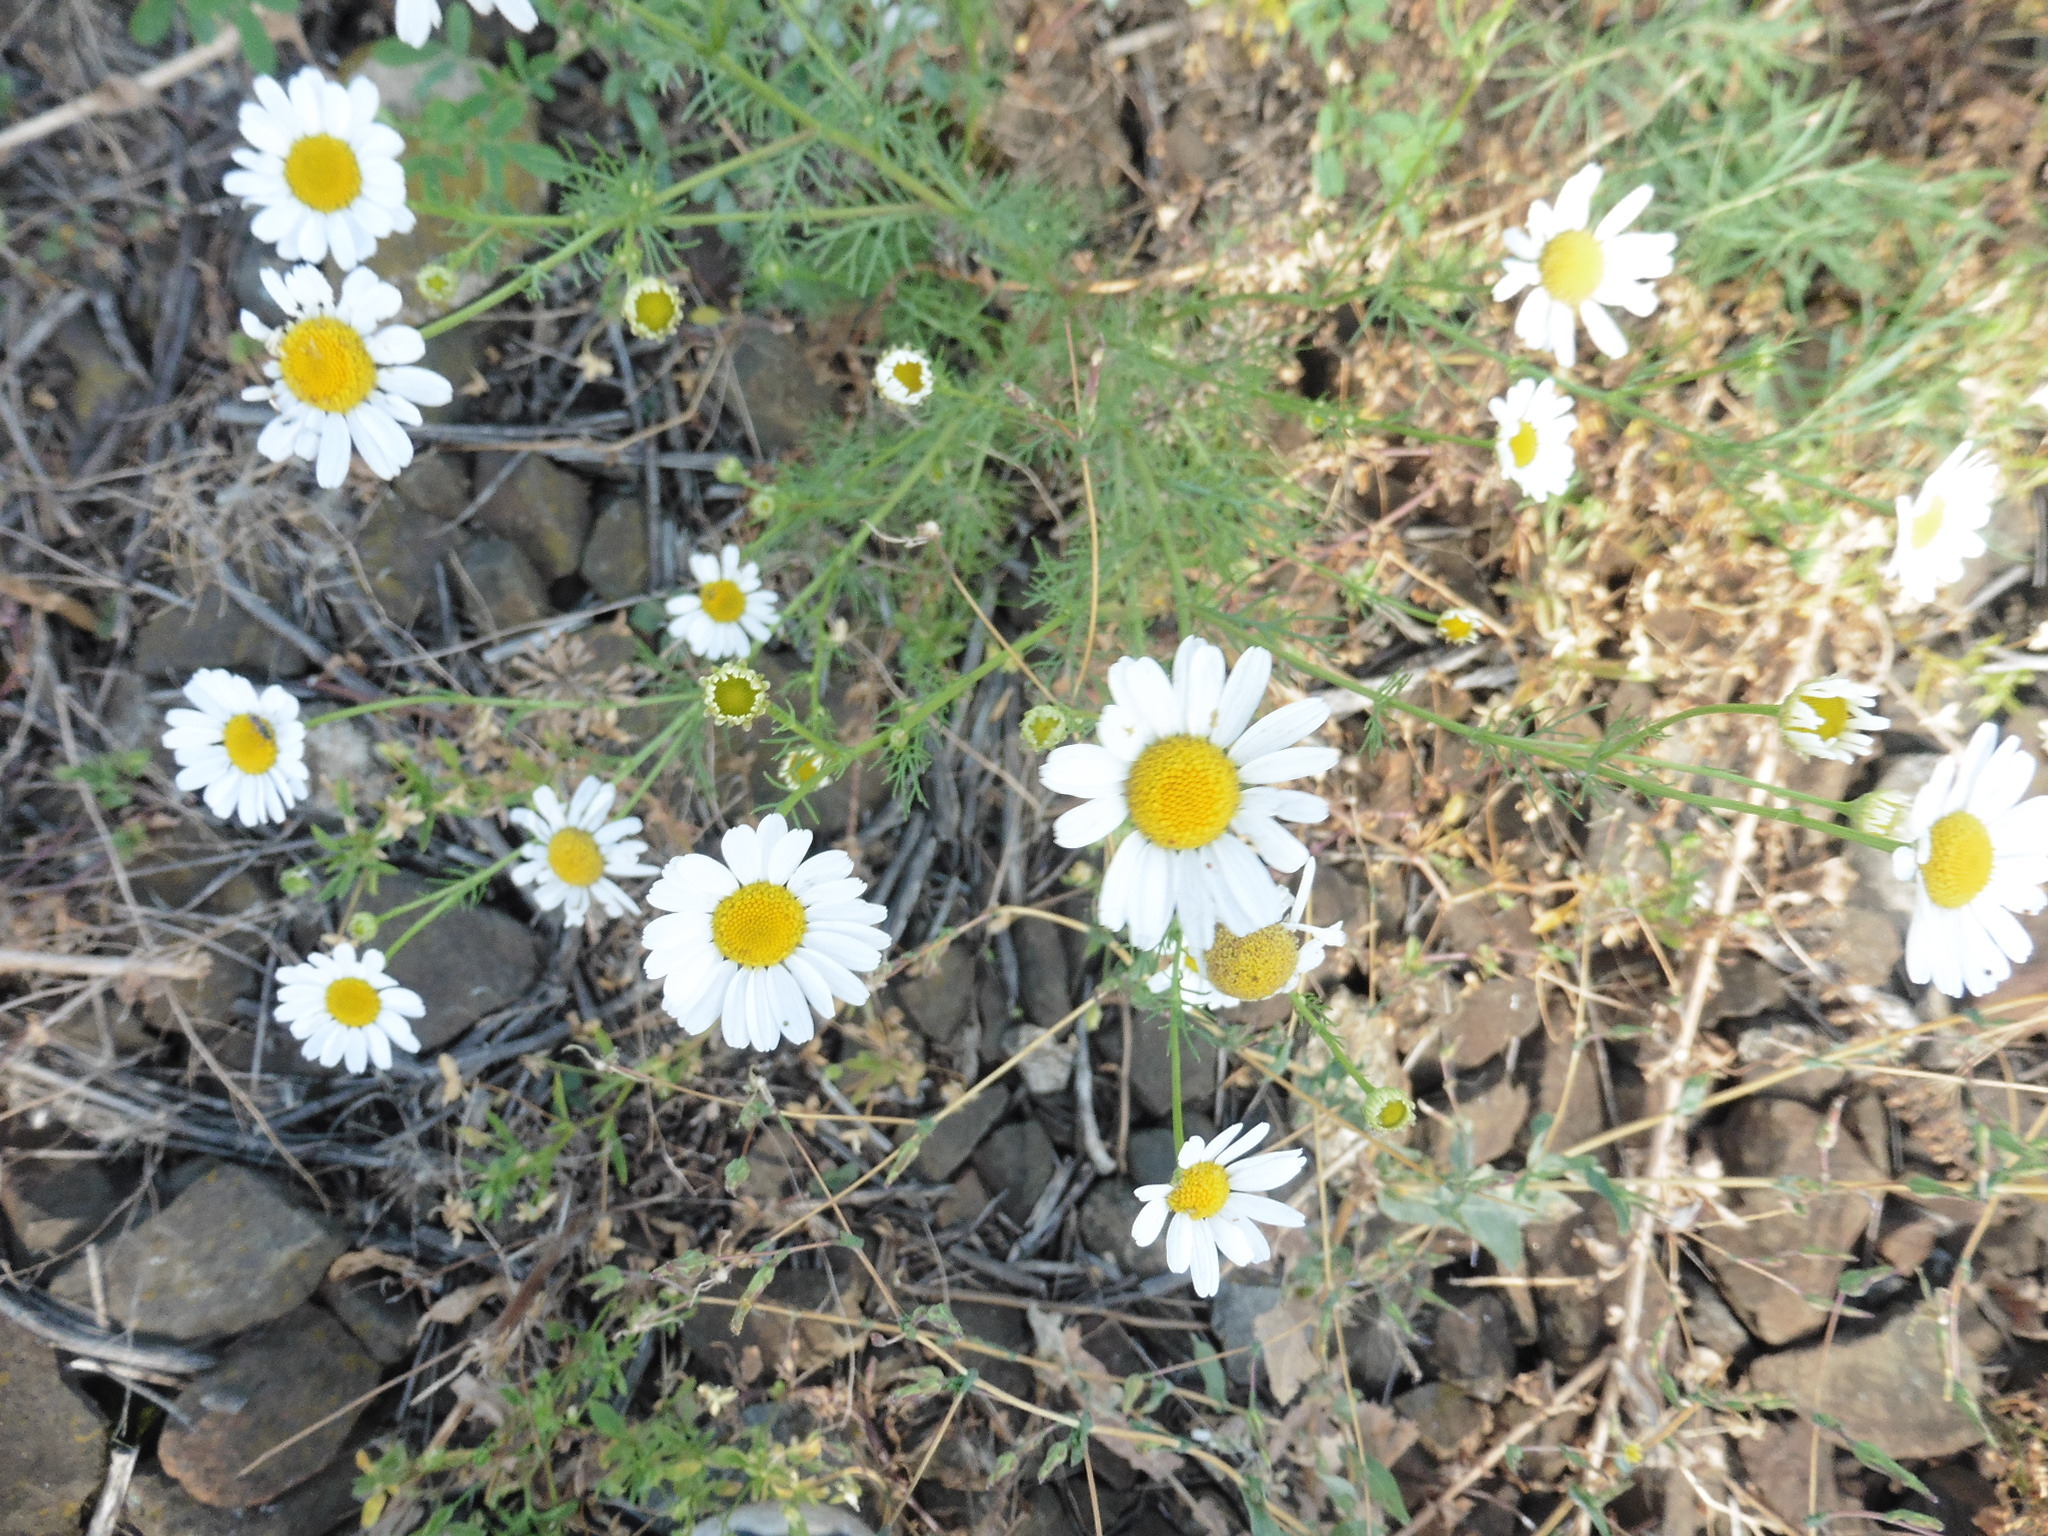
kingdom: Plantae
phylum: Tracheophyta
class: Magnoliopsida
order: Asterales
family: Asteraceae
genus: Tripleurospermum
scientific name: Tripleurospermum inodorum
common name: Scentless mayweed
